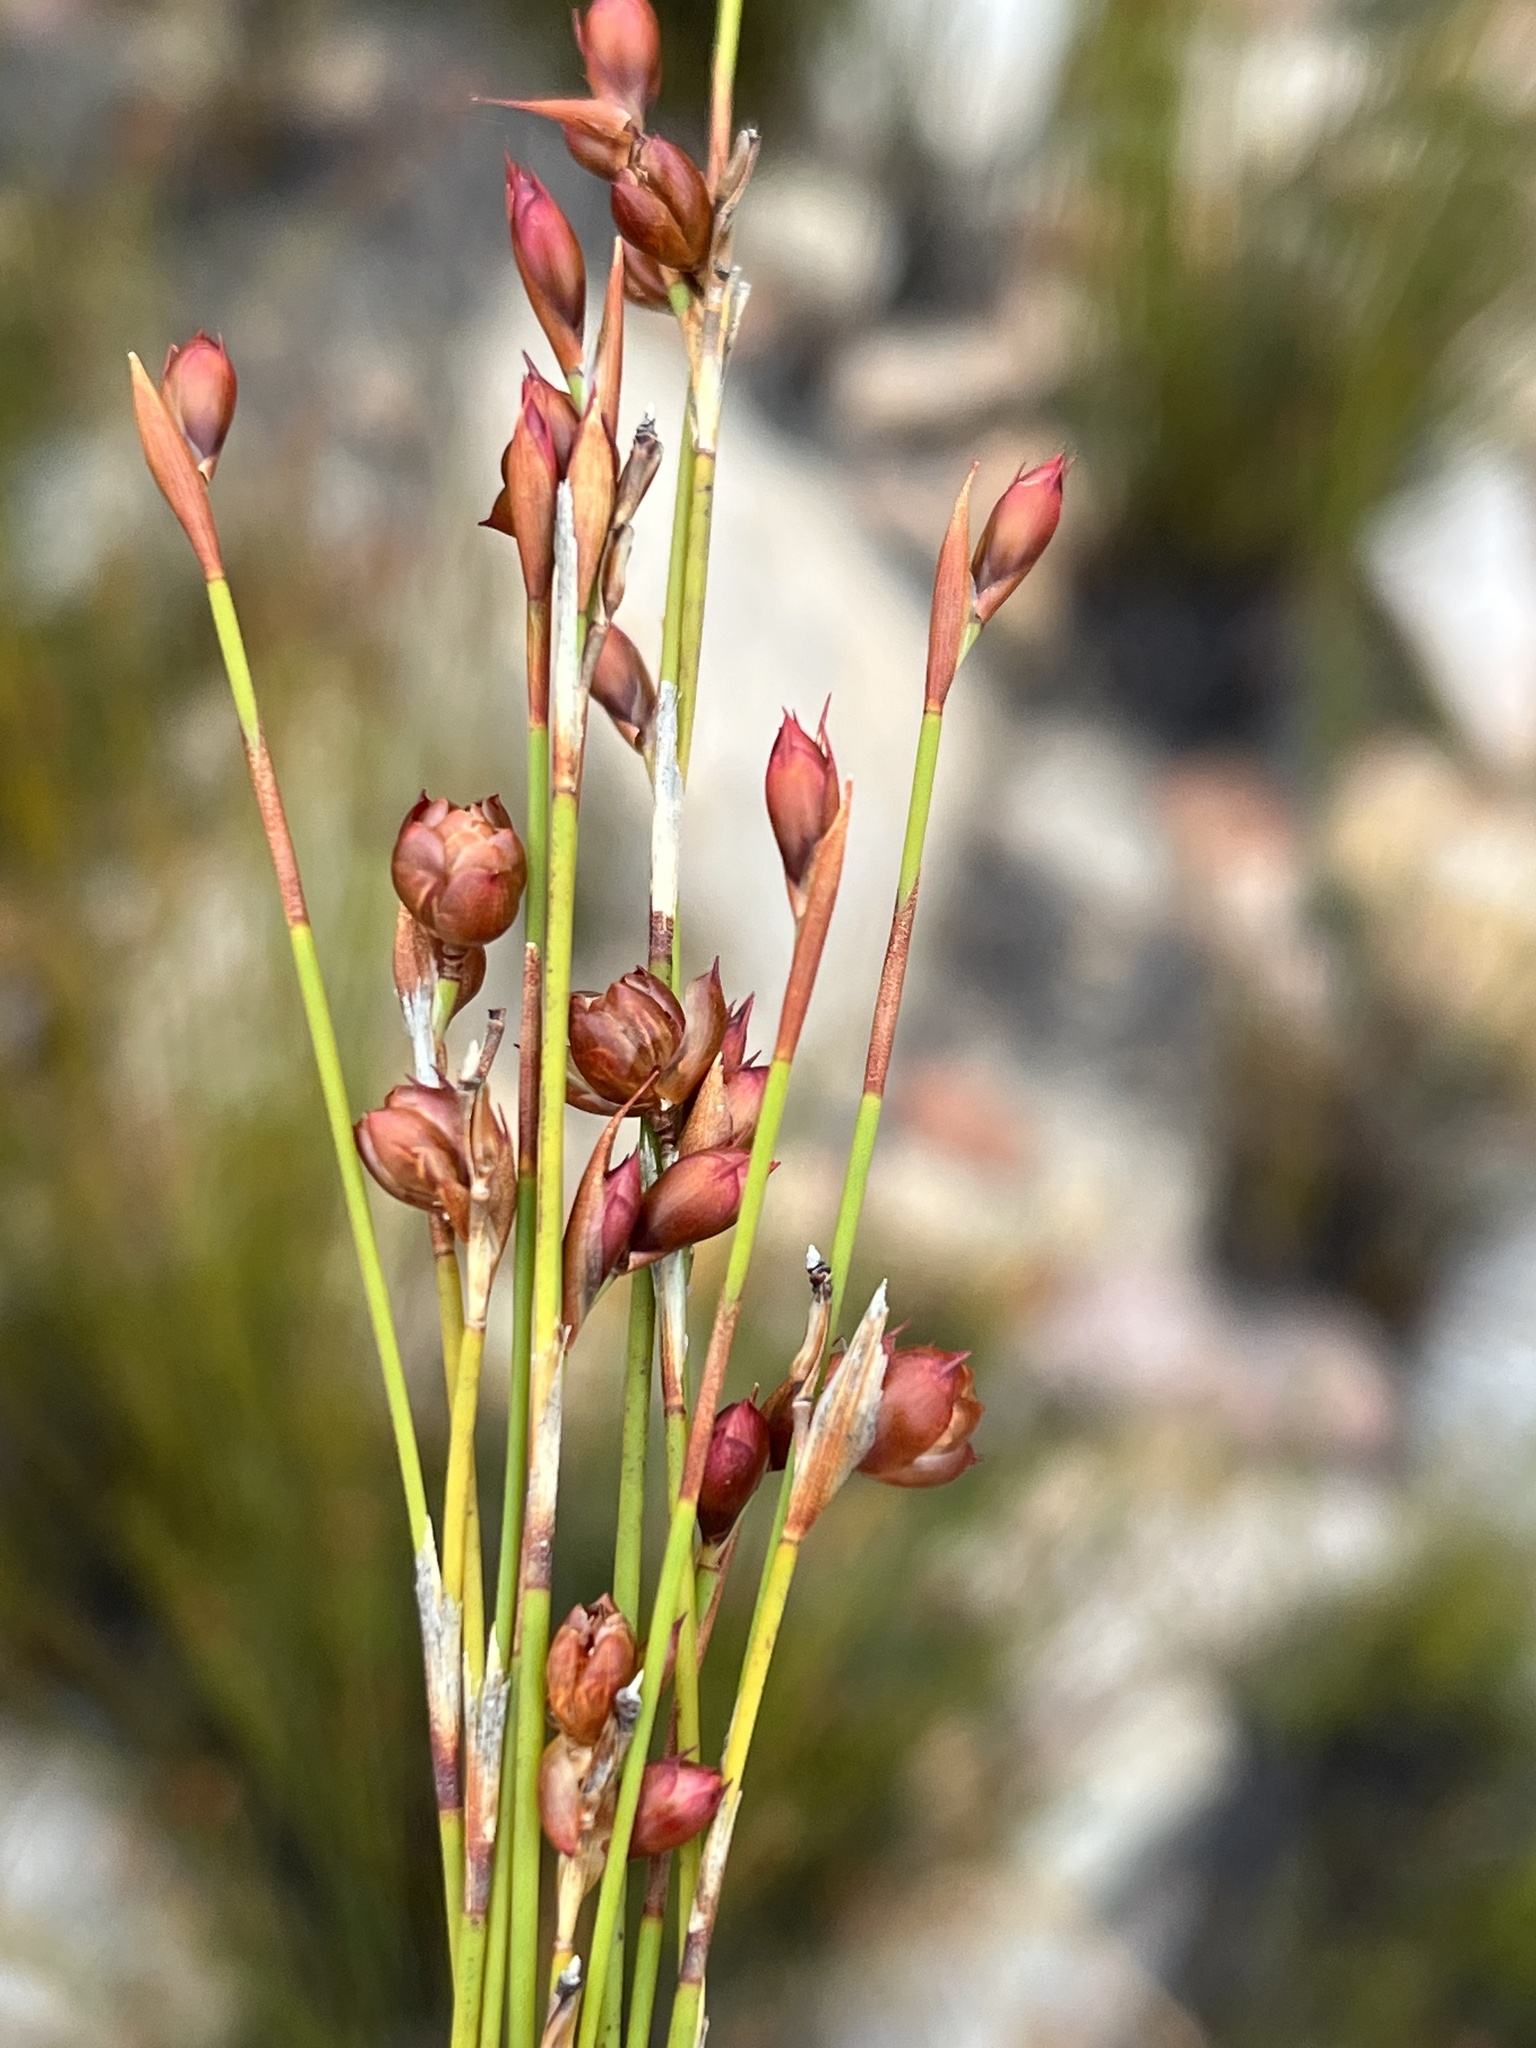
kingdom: Plantae
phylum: Tracheophyta
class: Liliopsida
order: Poales
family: Restionaceae
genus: Restio
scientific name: Restio sejunctus
